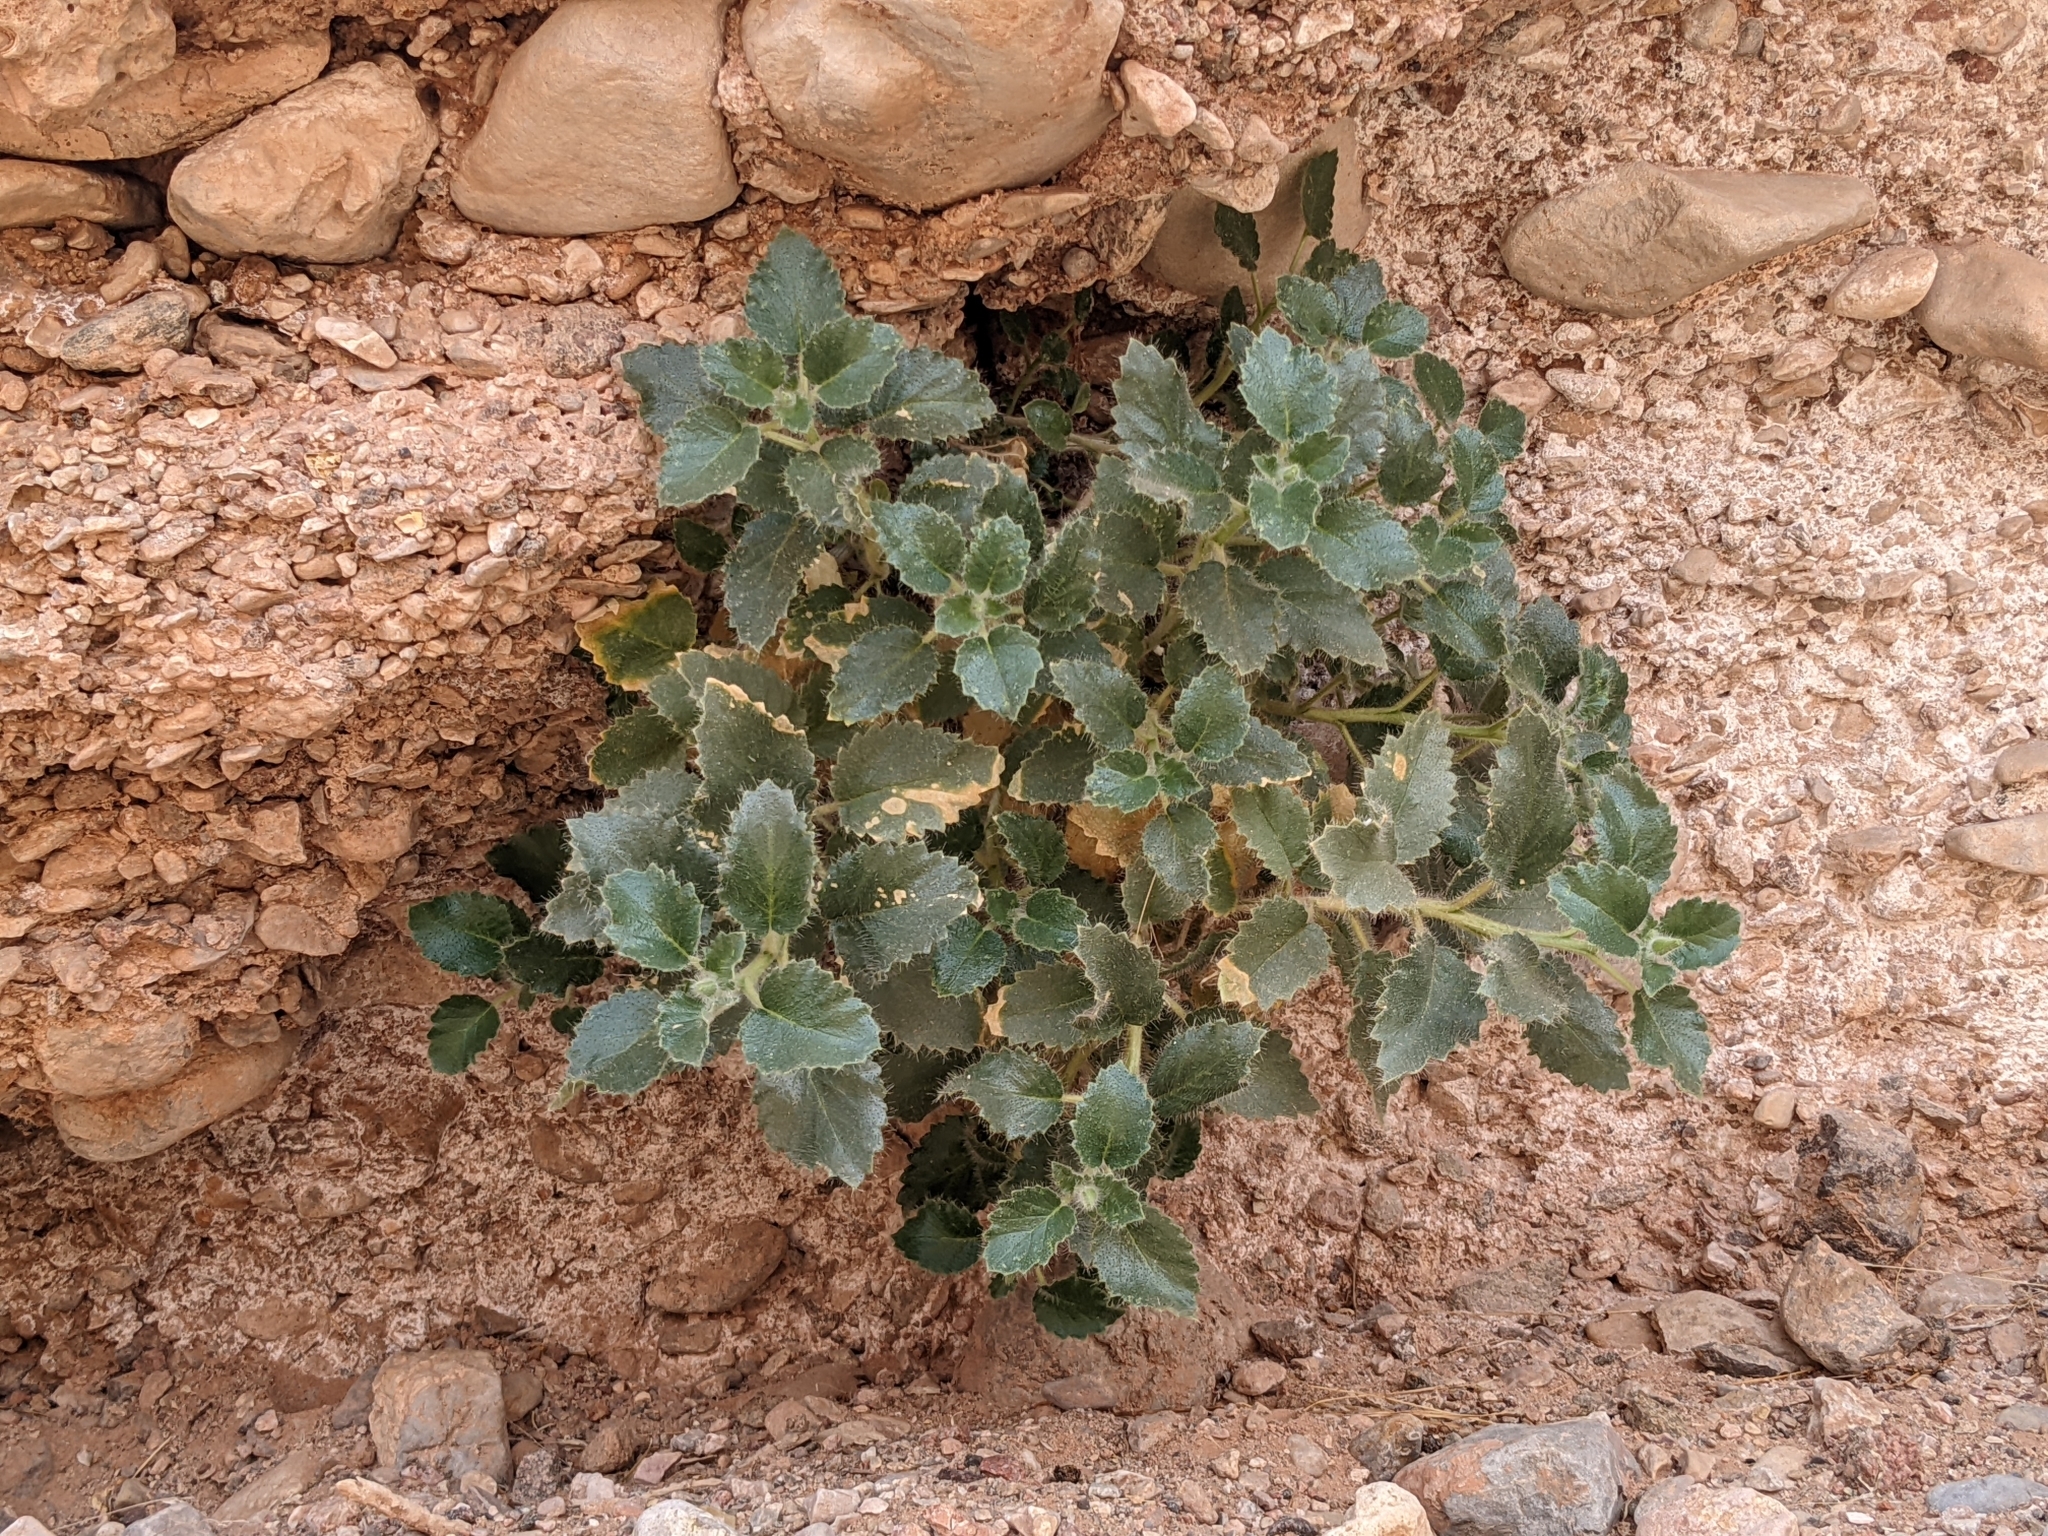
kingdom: Plantae
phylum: Tracheophyta
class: Magnoliopsida
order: Cornales
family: Loasaceae
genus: Eucnide
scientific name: Eucnide urens
